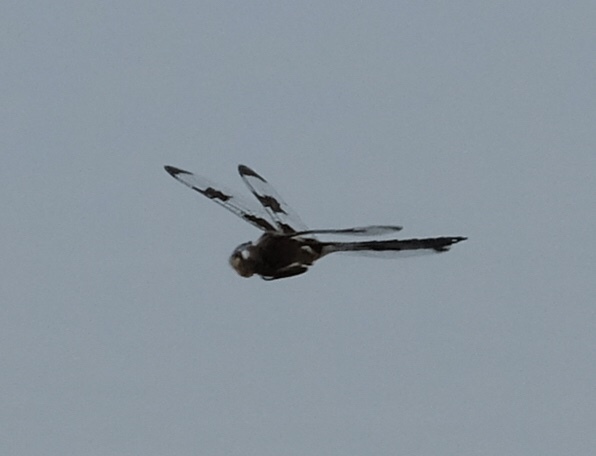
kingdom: Animalia
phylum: Arthropoda
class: Insecta
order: Odonata
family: Corduliidae
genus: Epitheca
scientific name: Epitheca princeps
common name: Prince baskettail
